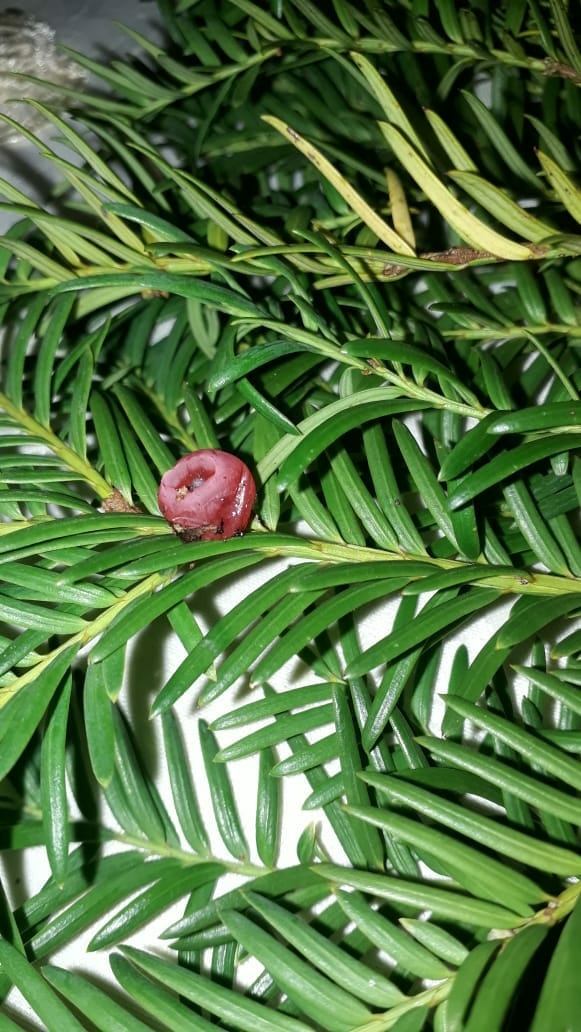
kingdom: Plantae
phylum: Tracheophyta
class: Pinopsida
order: Pinales
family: Taxaceae
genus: Taxus
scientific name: Taxus baccata
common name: Yew
